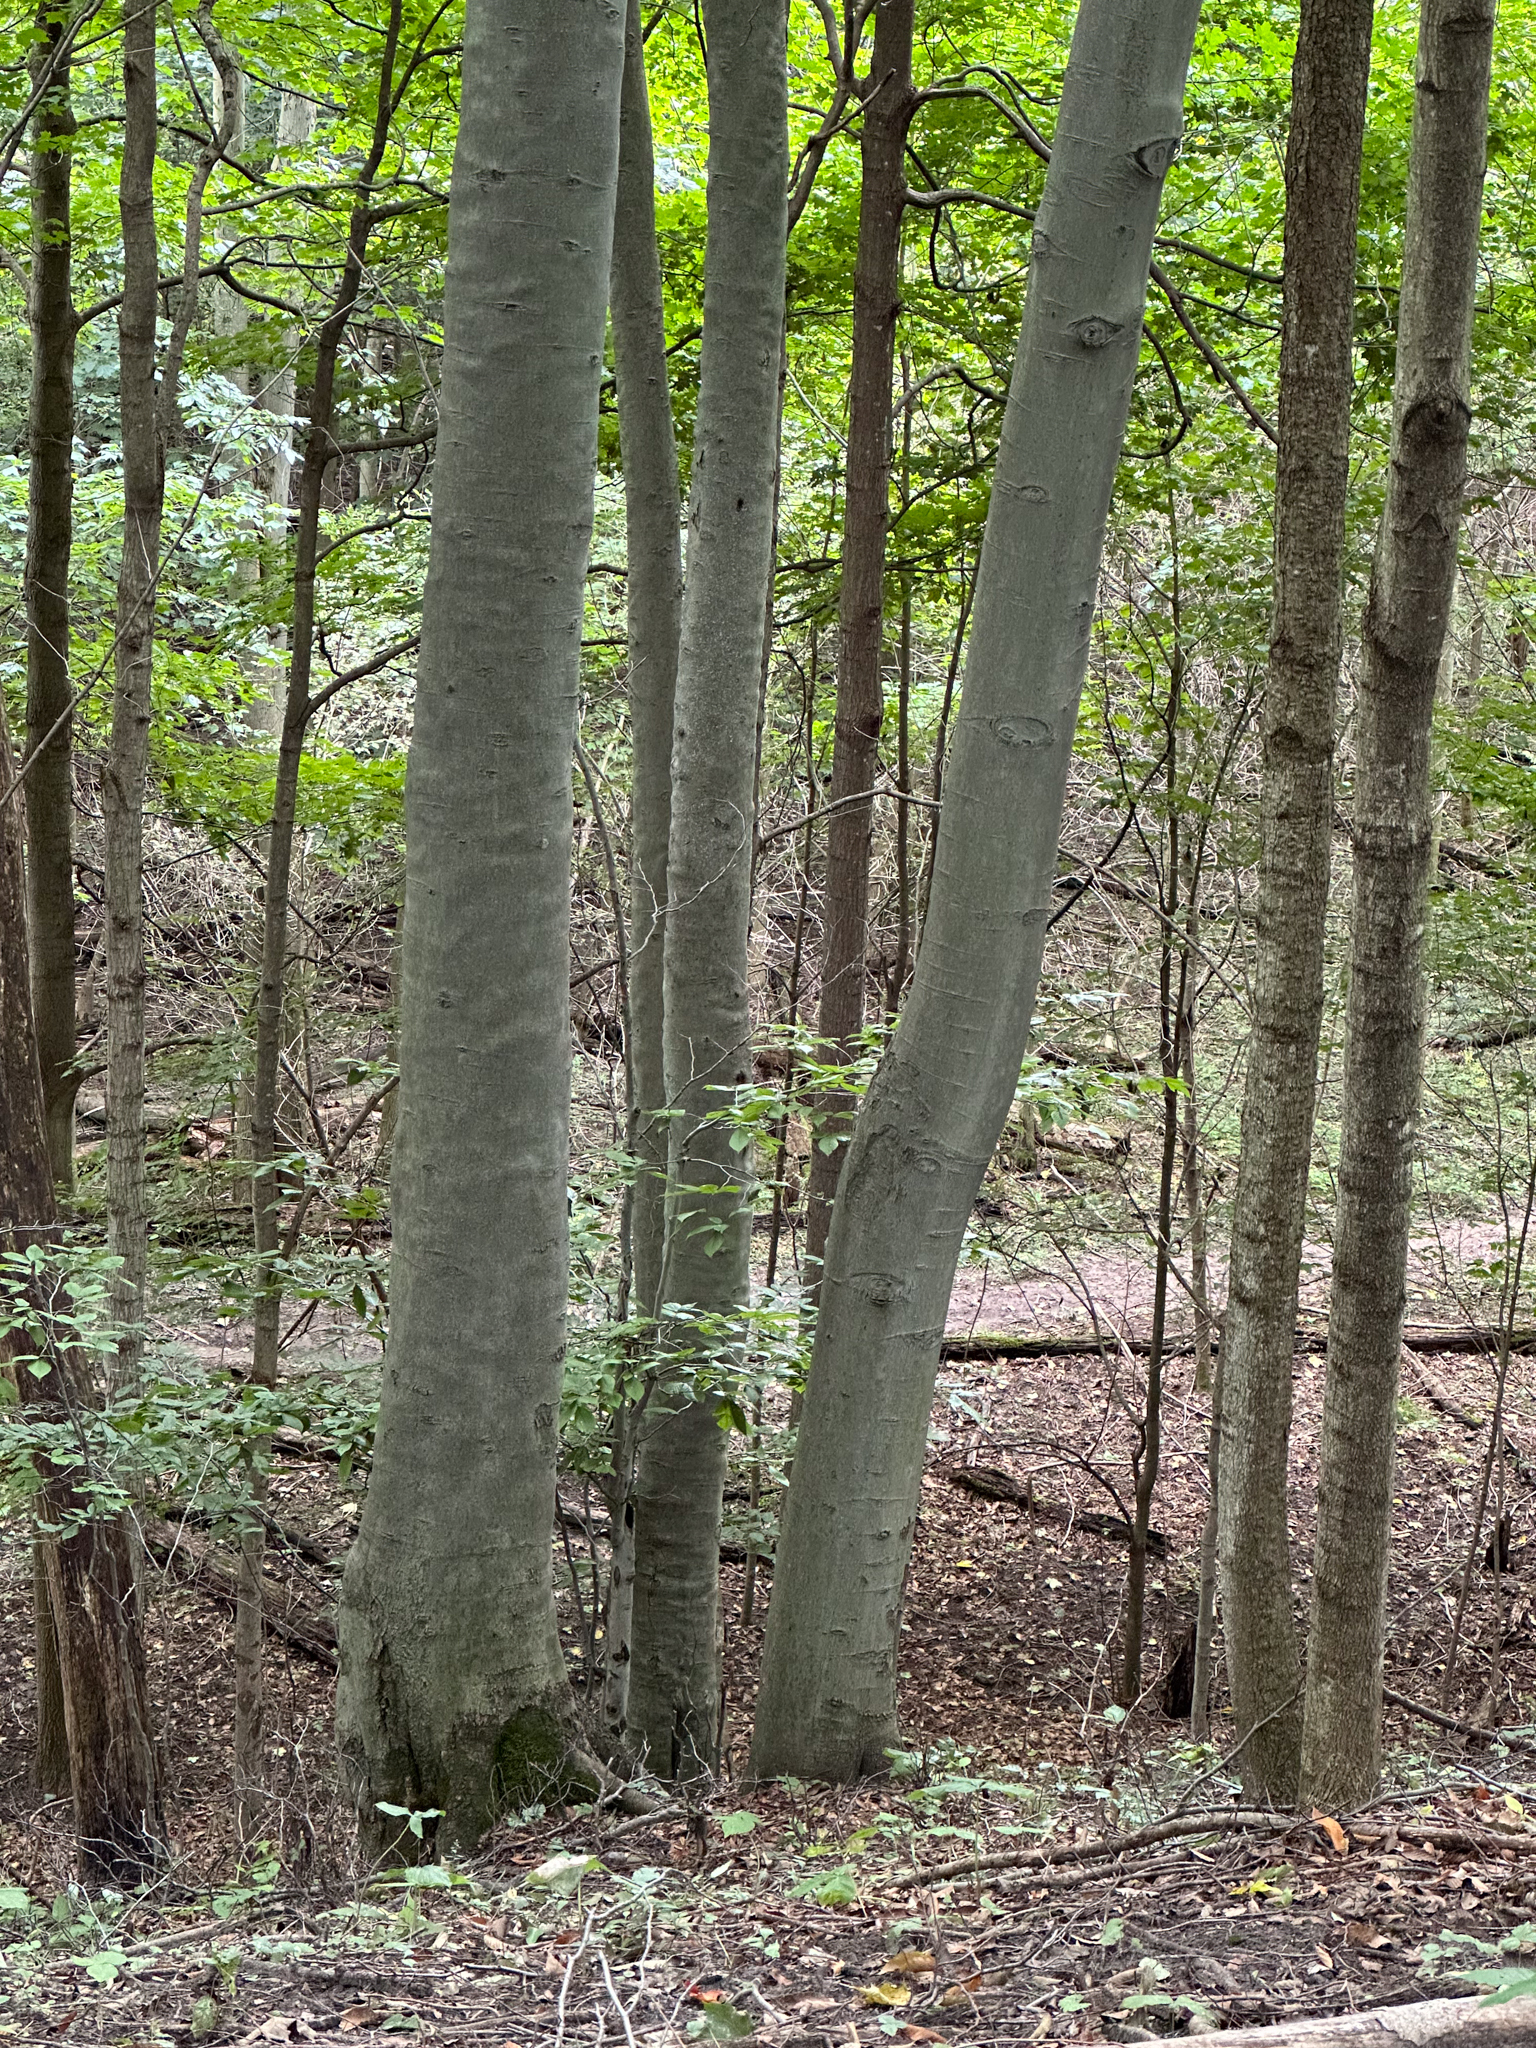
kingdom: Plantae
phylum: Tracheophyta
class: Magnoliopsida
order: Fagales
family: Fagaceae
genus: Fagus
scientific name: Fagus grandifolia
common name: American beech
